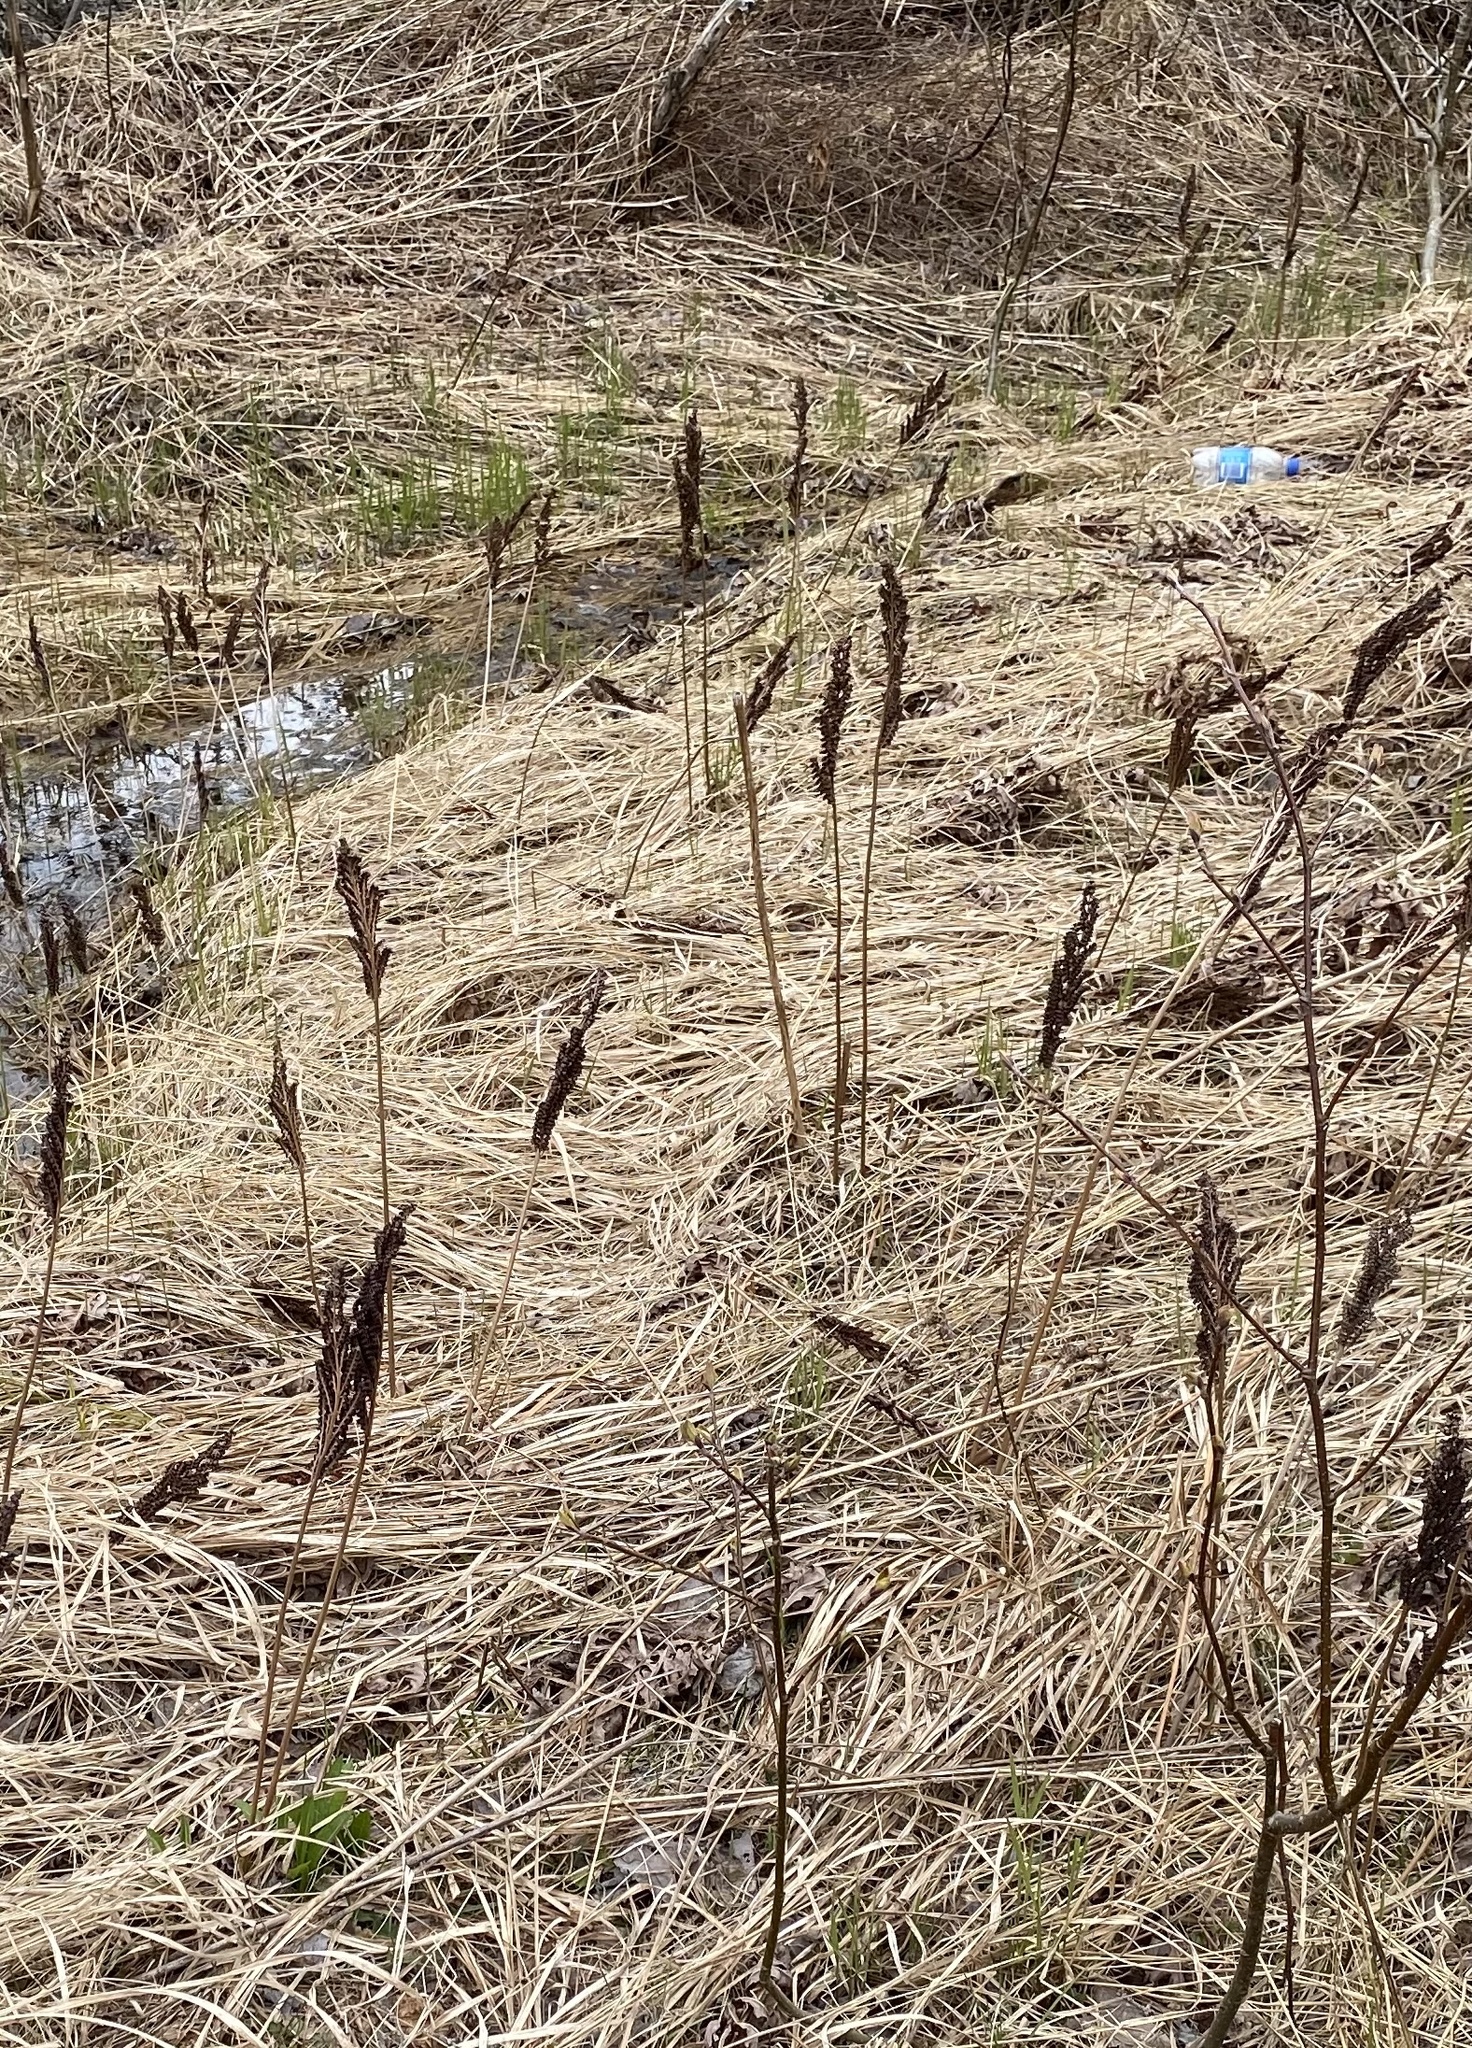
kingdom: Plantae
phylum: Tracheophyta
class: Polypodiopsida
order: Polypodiales
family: Onocleaceae
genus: Onoclea
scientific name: Onoclea sensibilis
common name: Sensitive fern
